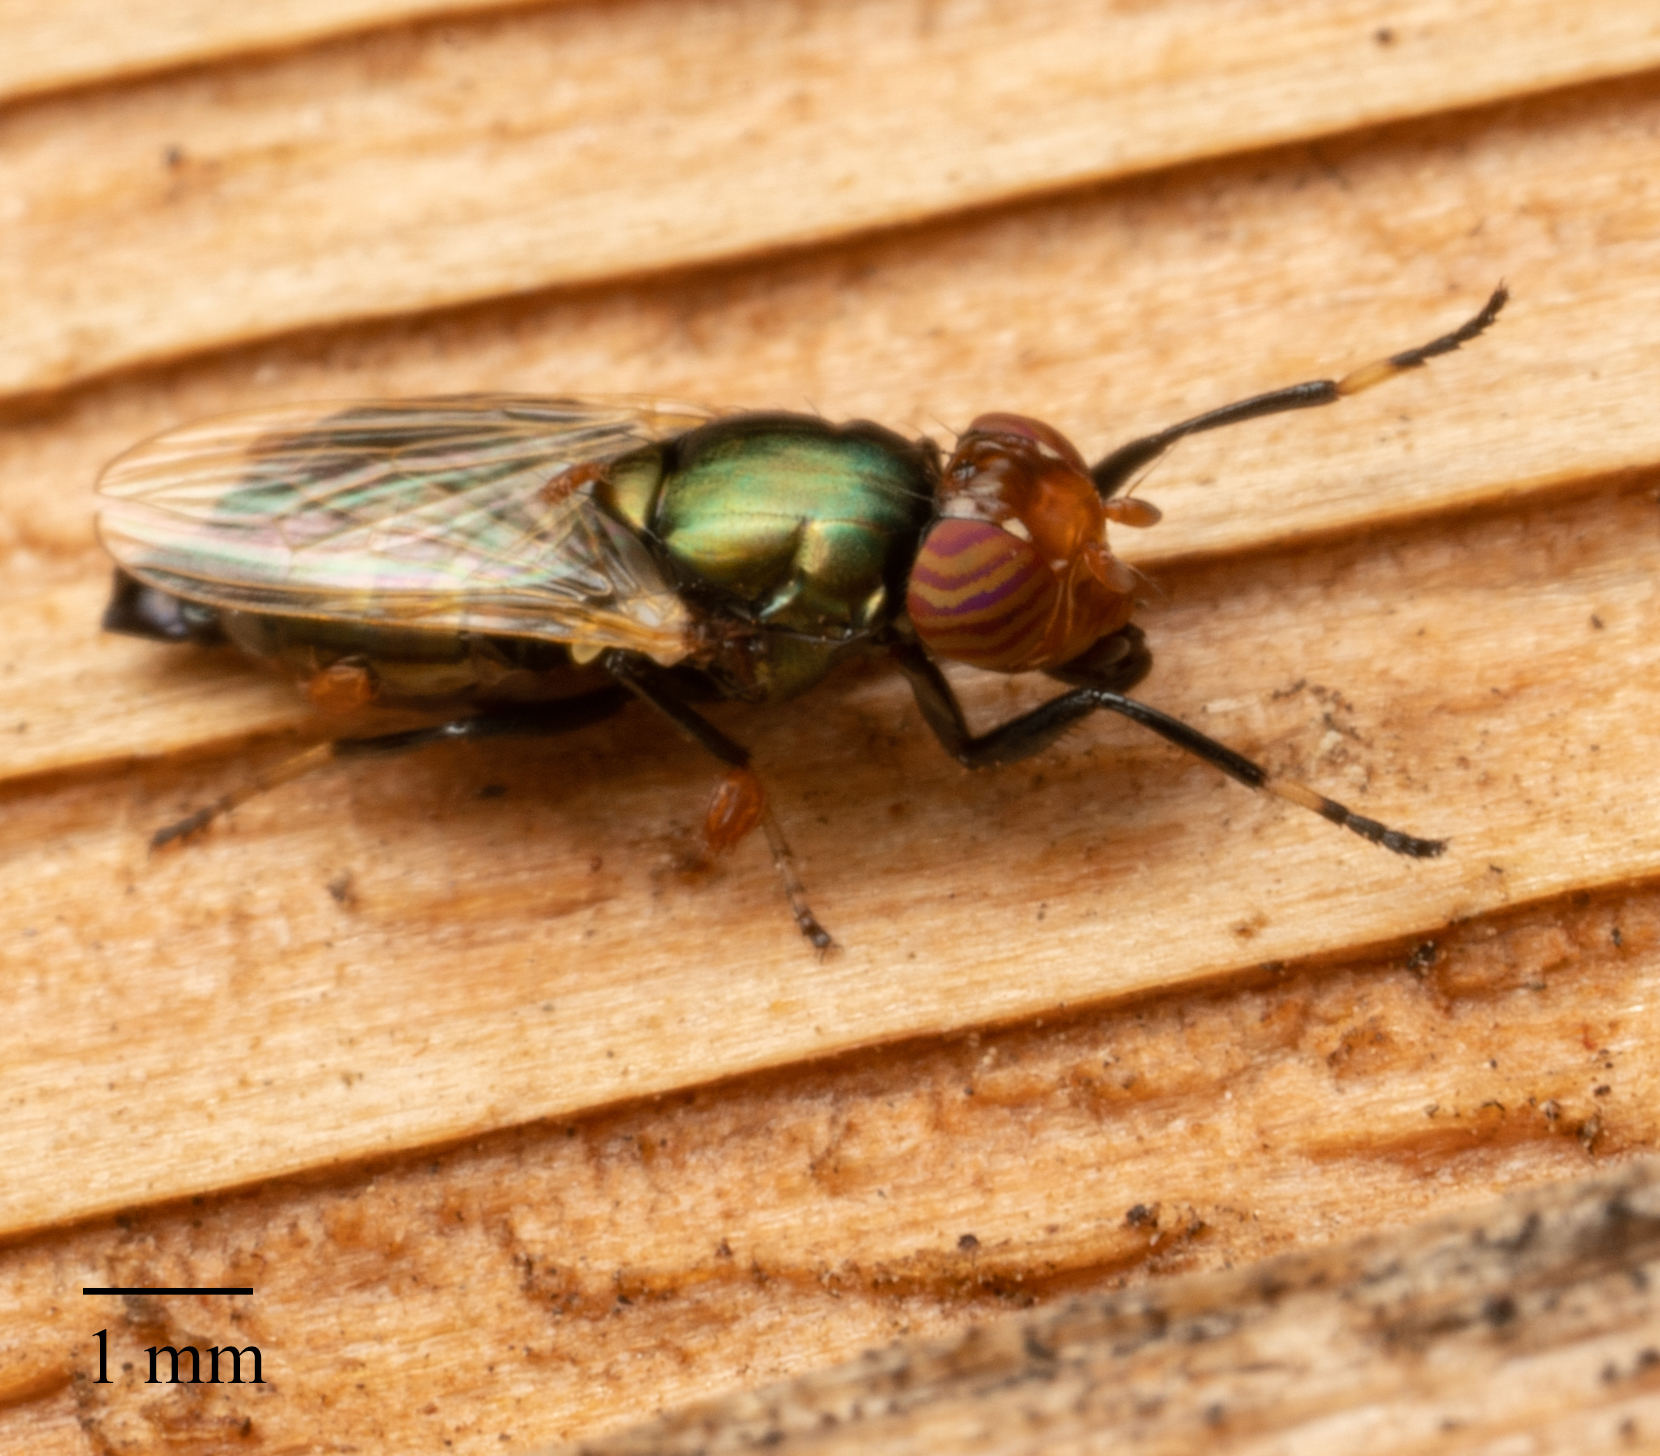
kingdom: Animalia
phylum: Arthropoda
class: Insecta
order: Diptera
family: Ulidiidae
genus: Physiphora
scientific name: Physiphora alceae
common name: Picture-winged fly
